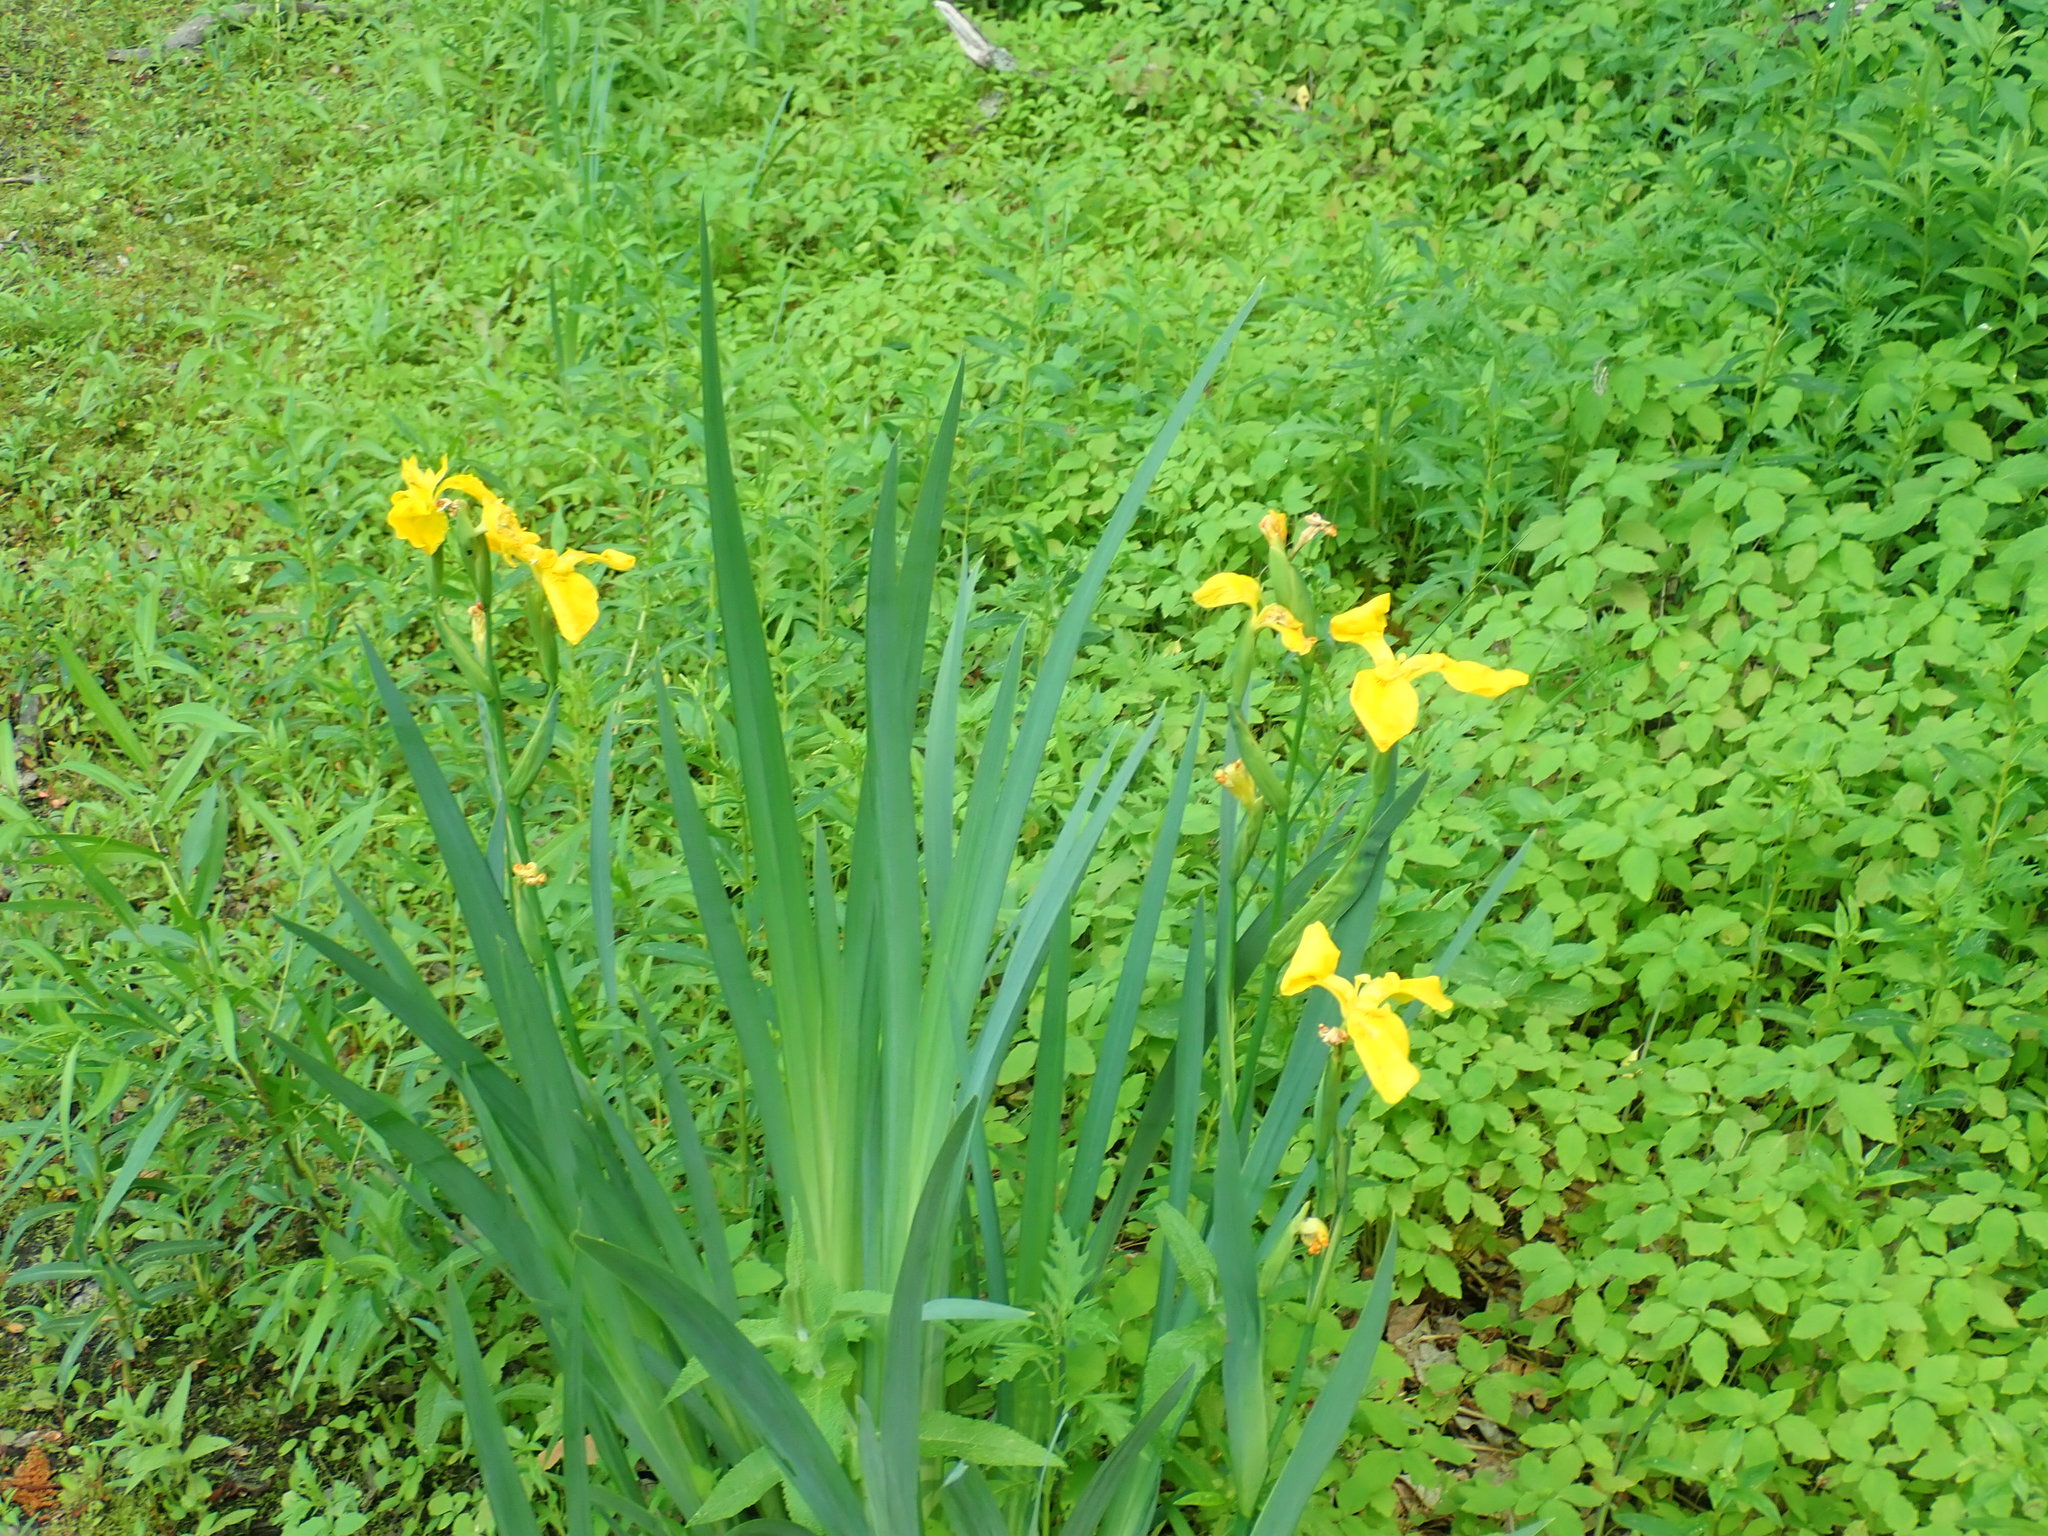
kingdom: Plantae
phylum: Tracheophyta
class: Liliopsida
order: Asparagales
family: Iridaceae
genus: Iris
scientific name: Iris pseudacorus
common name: Yellow flag
